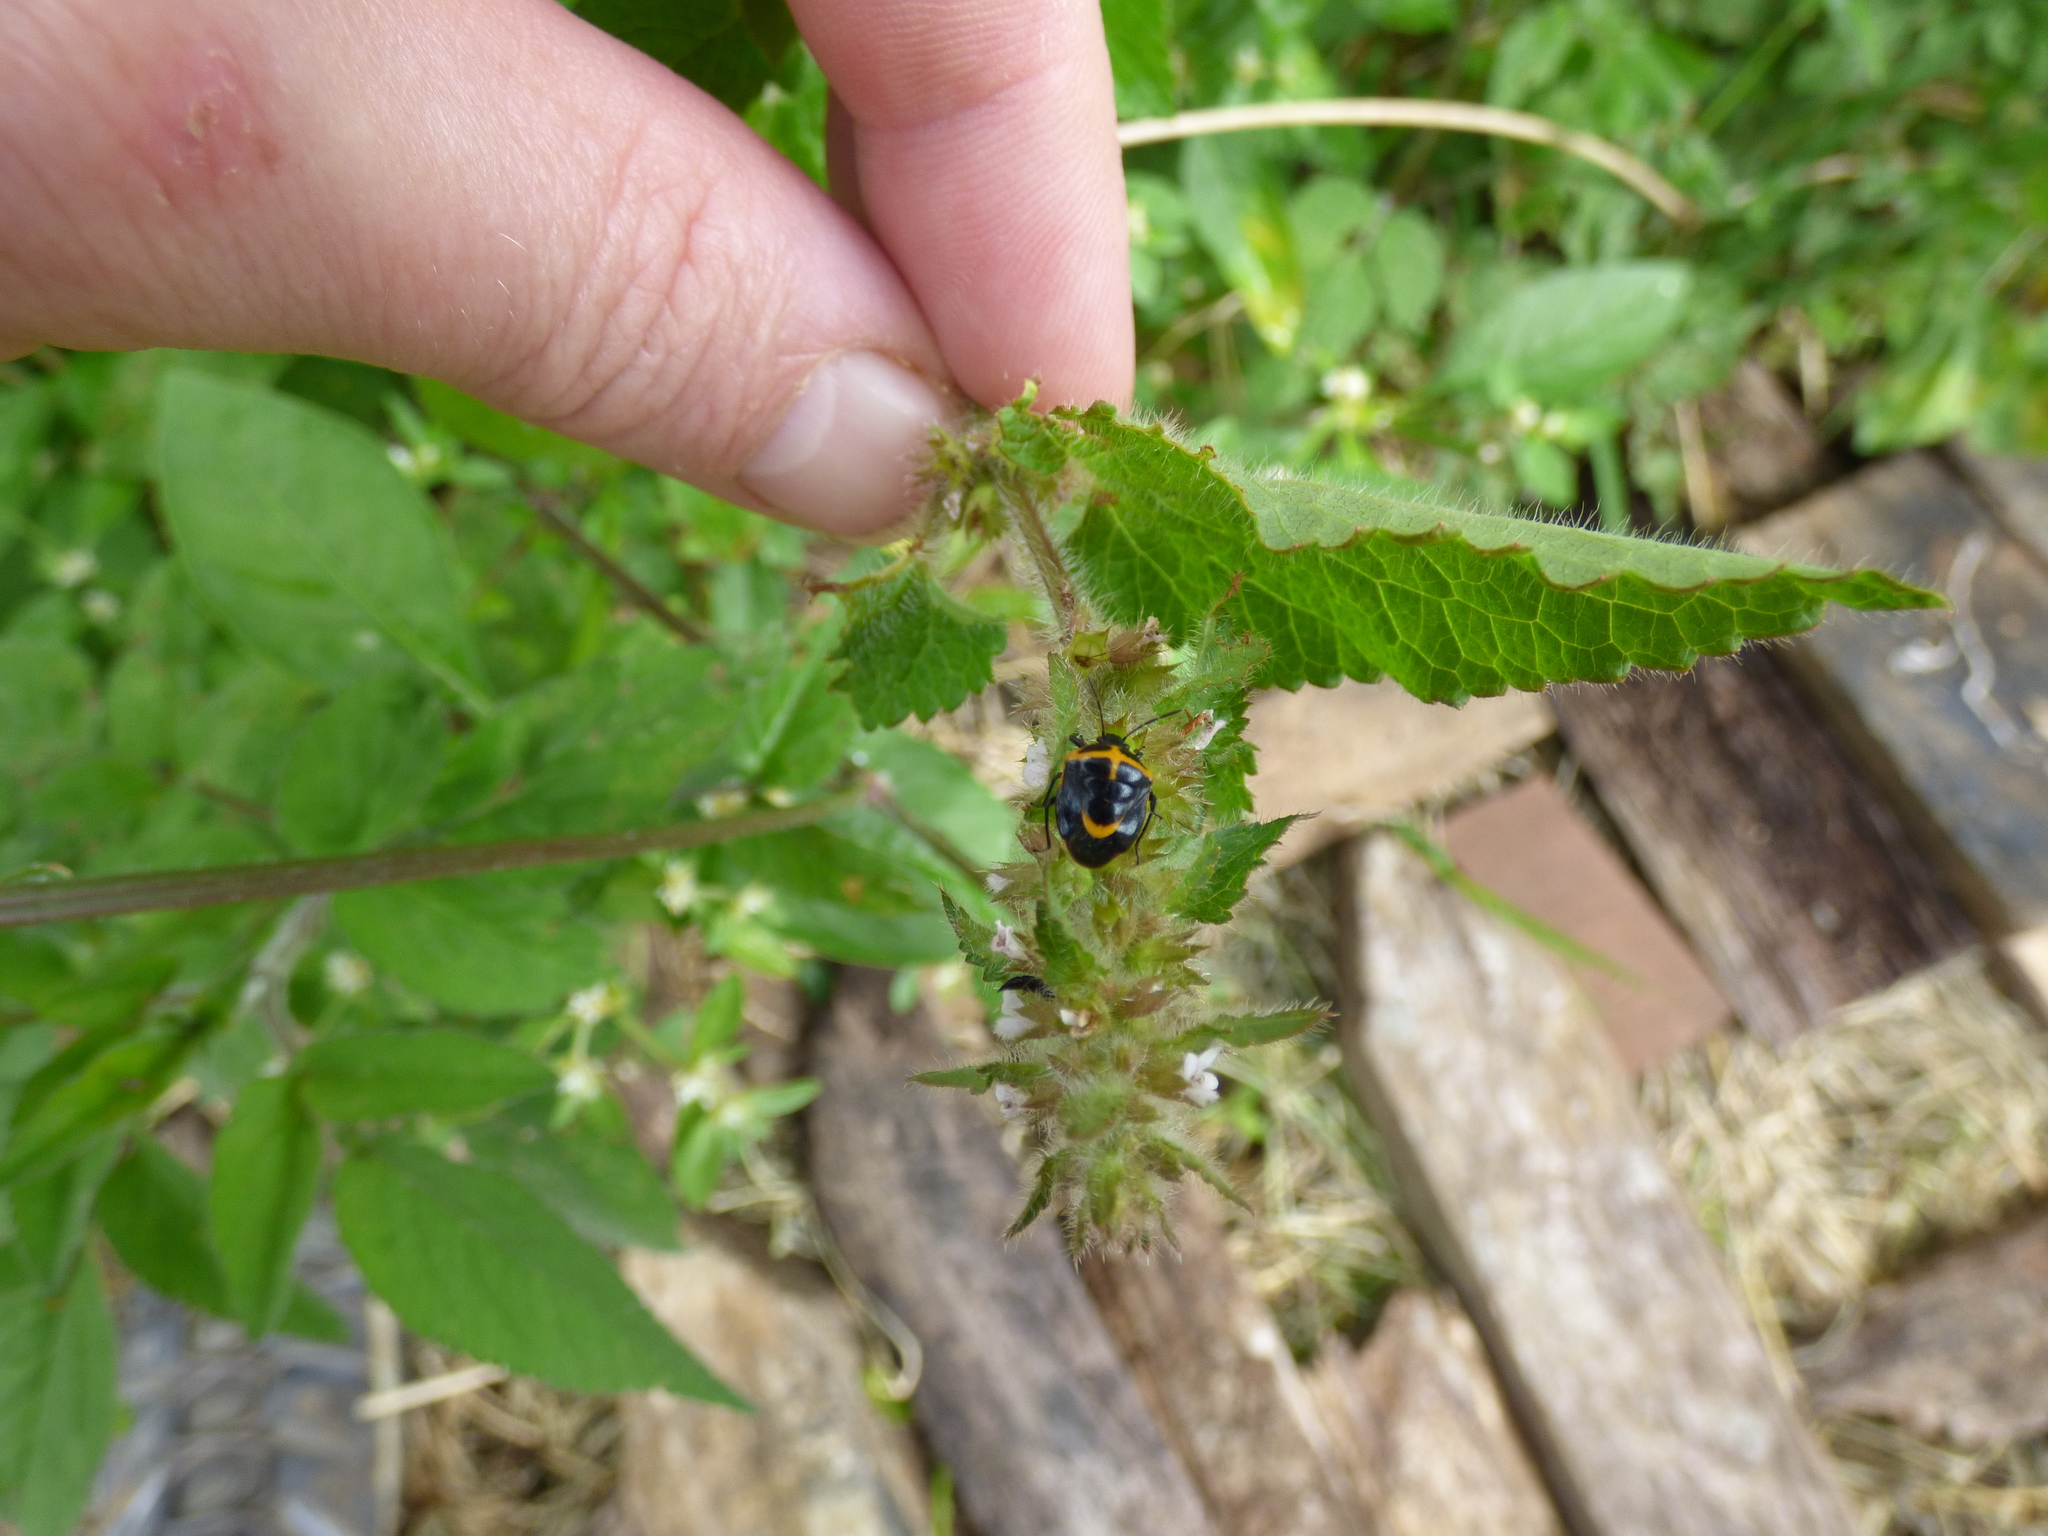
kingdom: Animalia
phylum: Arthropoda
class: Insecta
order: Hemiptera
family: Pentatomidae
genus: Cosmopepla
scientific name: Cosmopepla
